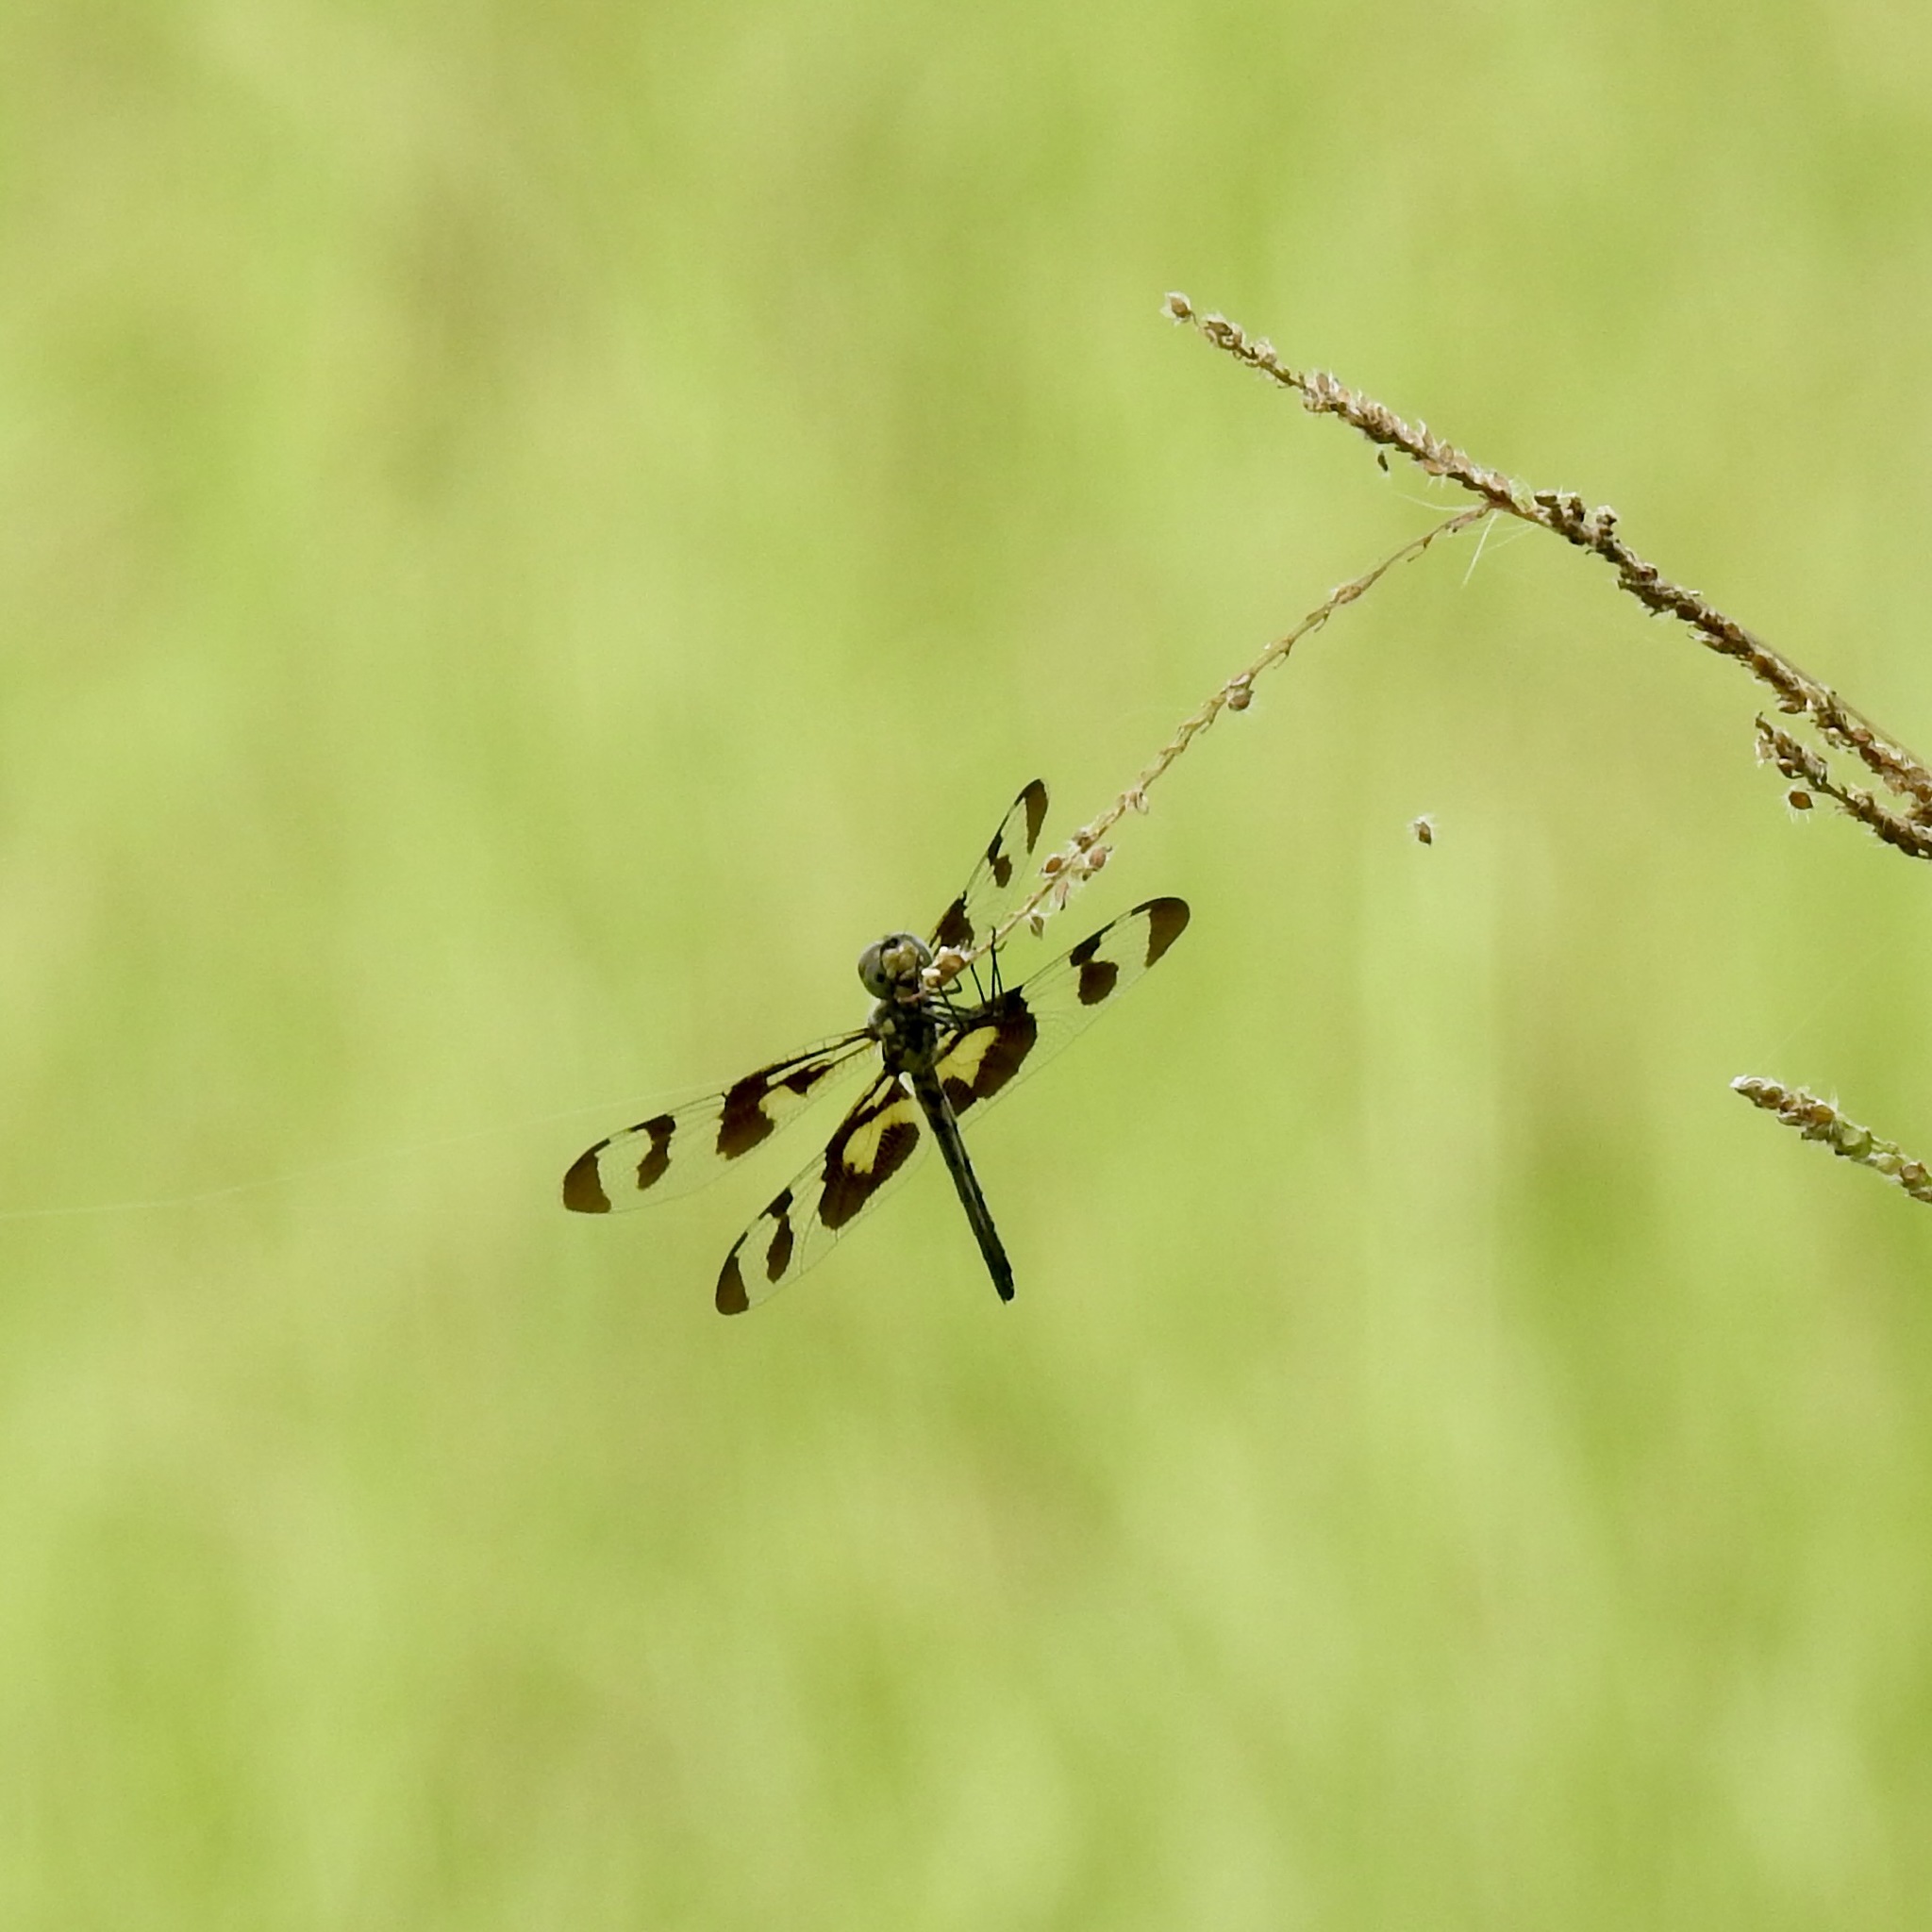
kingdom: Animalia
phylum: Arthropoda
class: Insecta
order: Odonata
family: Libellulidae
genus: Celithemis
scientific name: Celithemis fasciata
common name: Banded pennant
